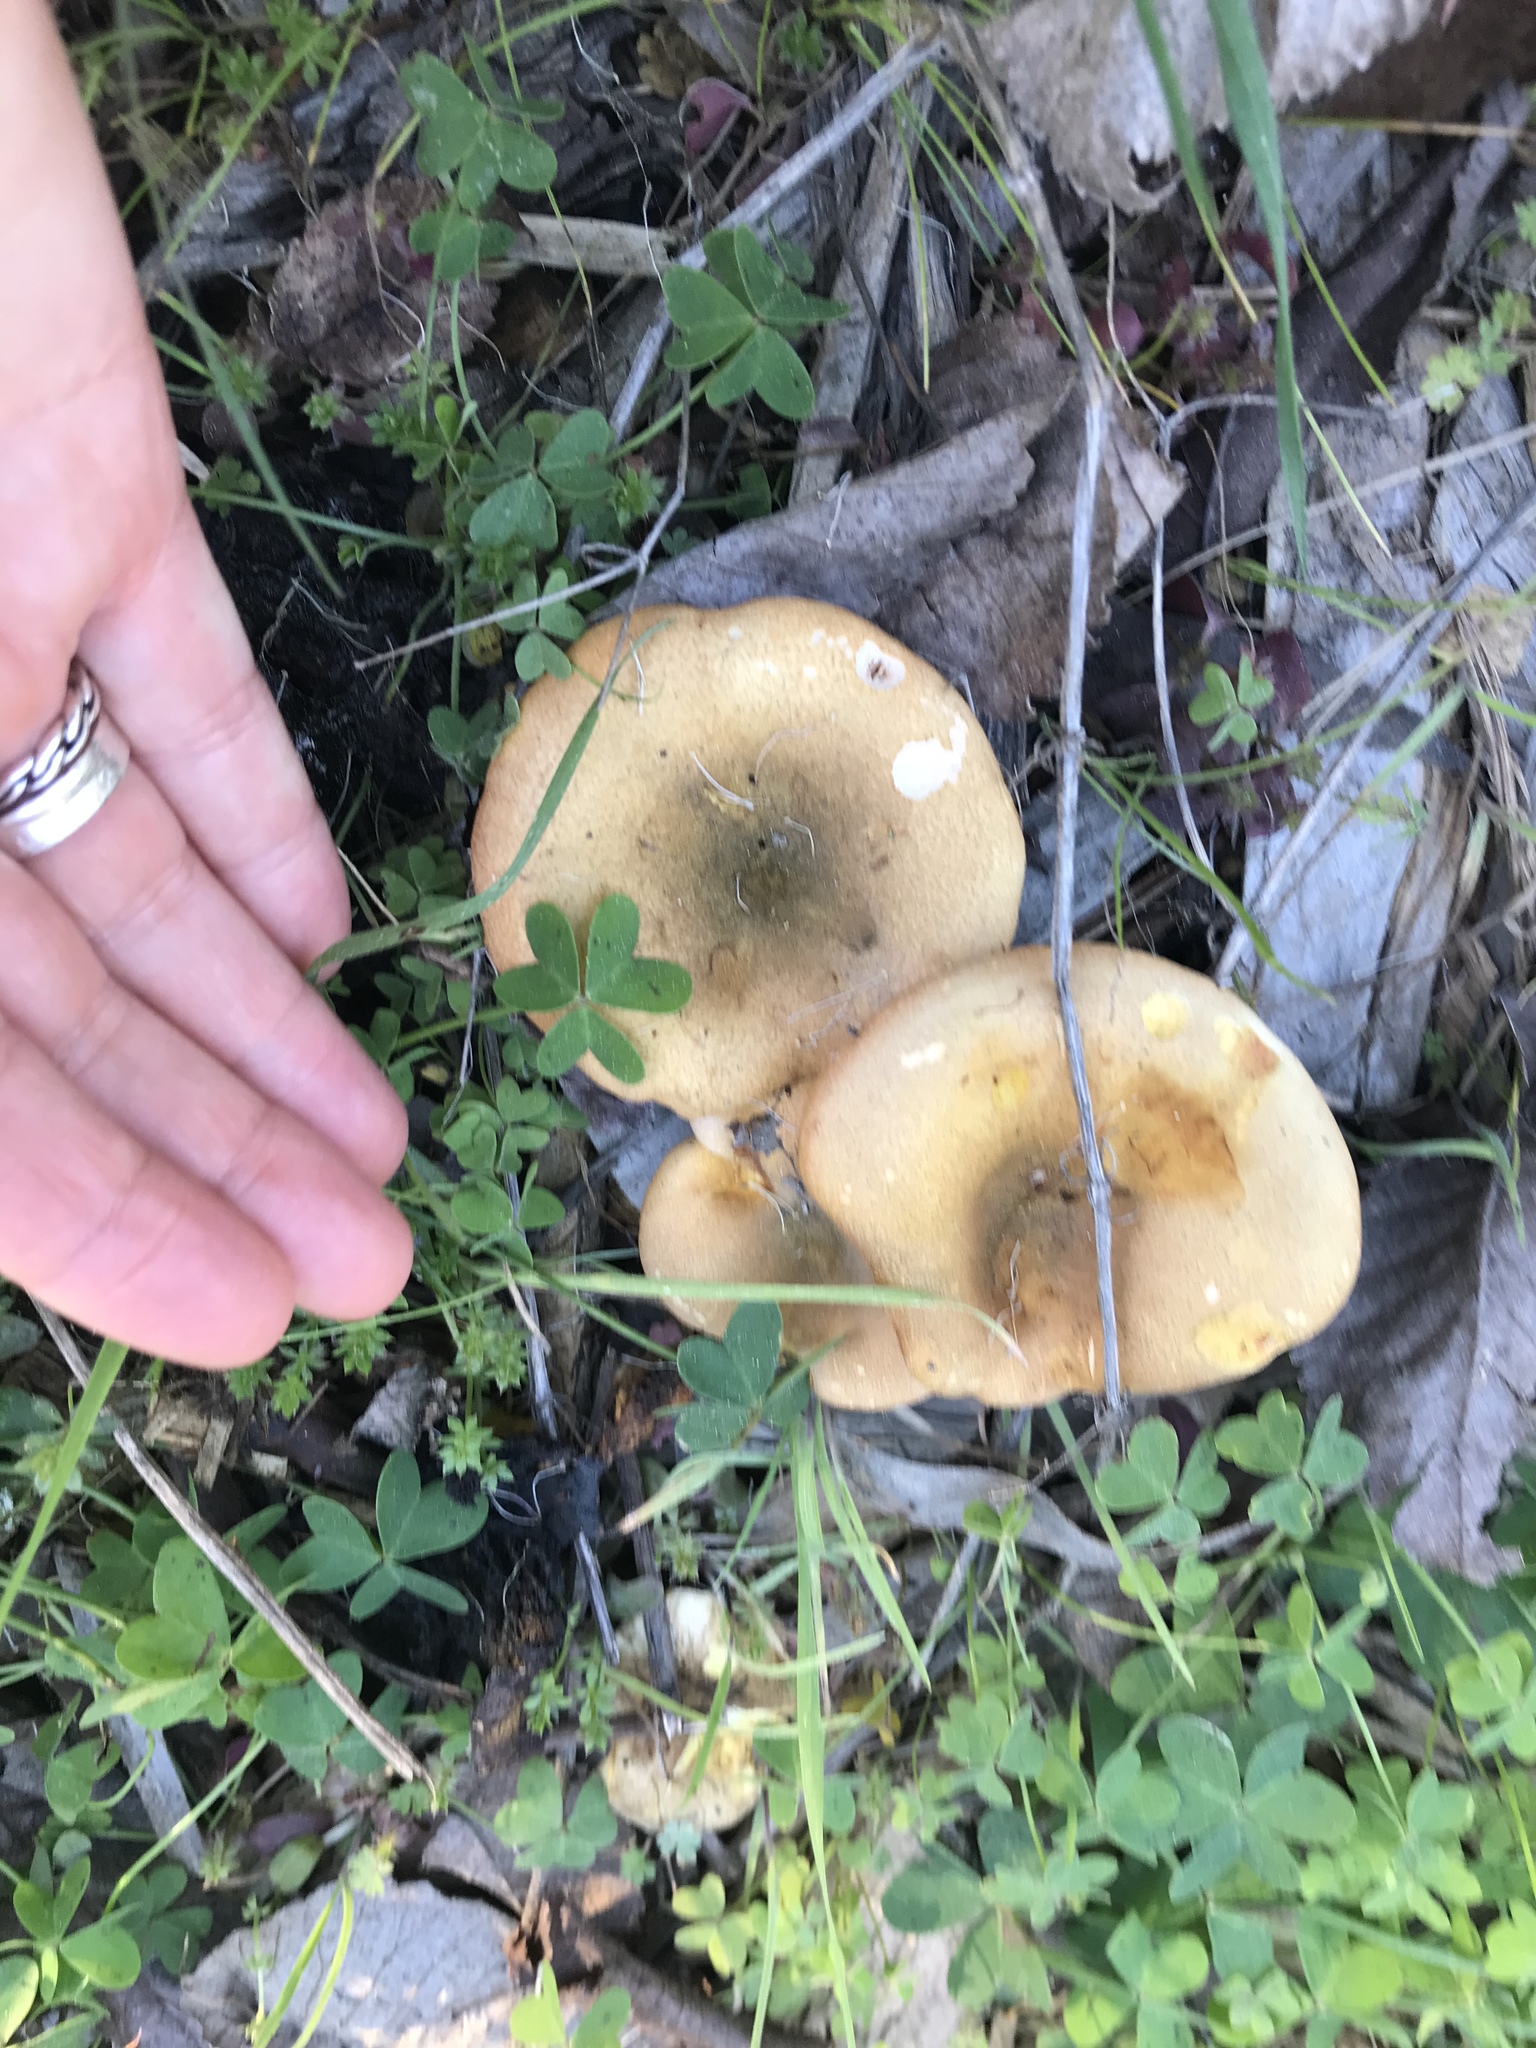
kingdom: Fungi
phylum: Basidiomycota
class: Agaricomycetes
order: Boletales
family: Hygrophoropsidaceae
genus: Hygrophoropsis
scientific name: Hygrophoropsis aurantiaca
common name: False chanterelle
